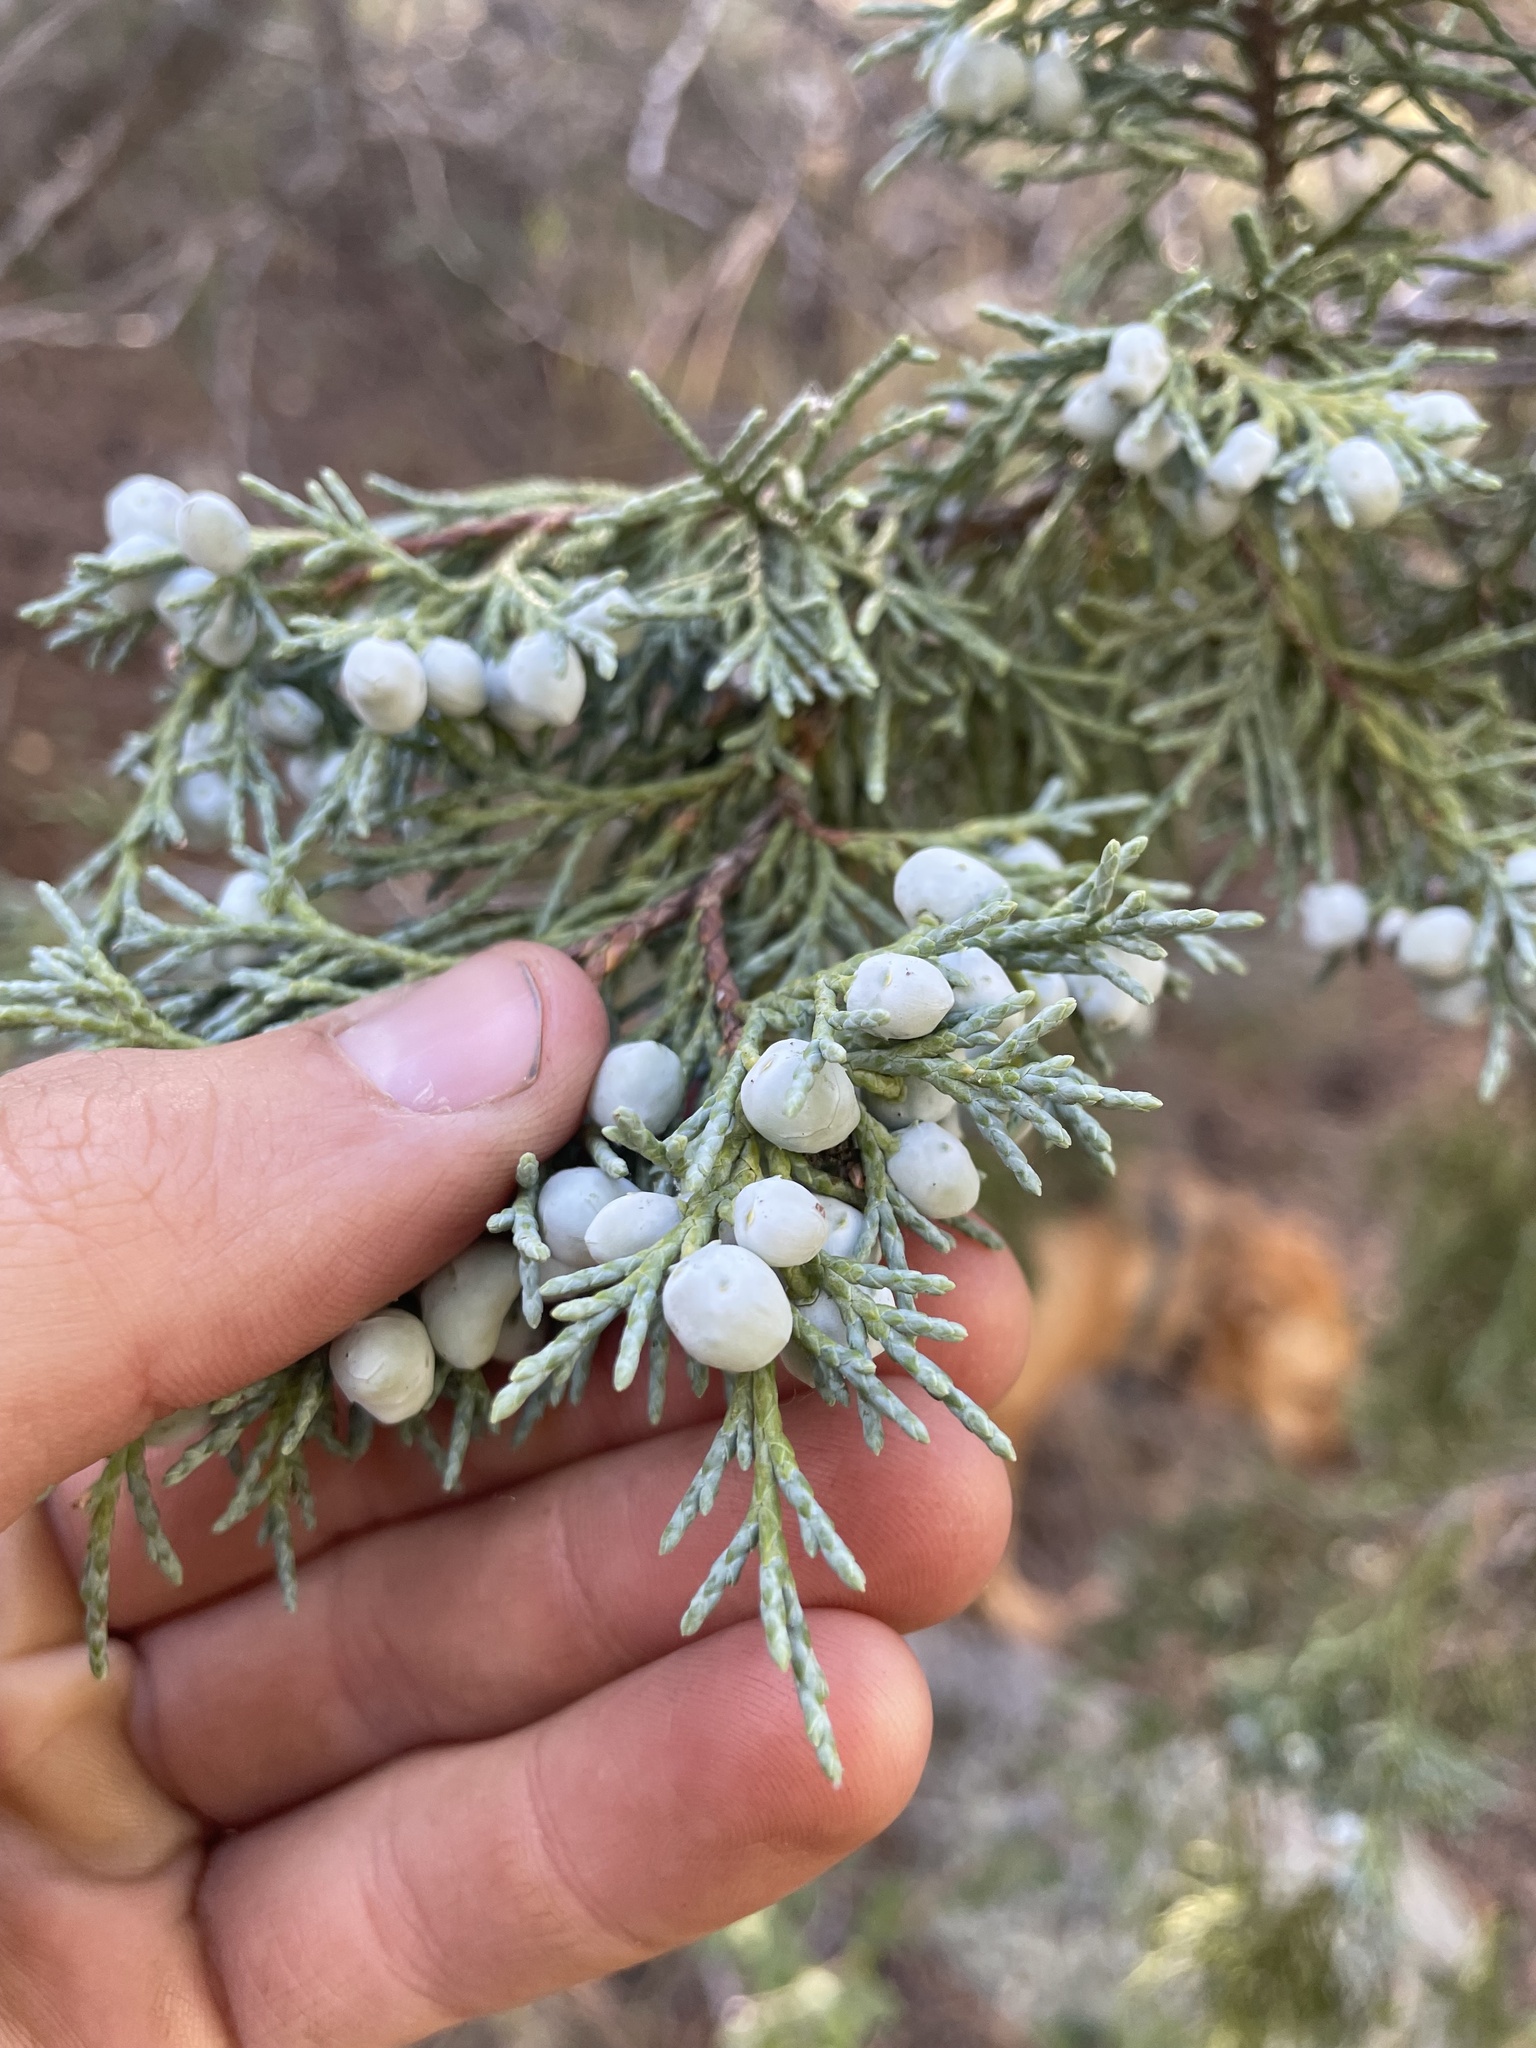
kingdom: Plantae
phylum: Tracheophyta
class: Pinopsida
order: Pinales
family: Cupressaceae
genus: Juniperus
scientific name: Juniperus scopulorum
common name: Rocky mountain juniper
